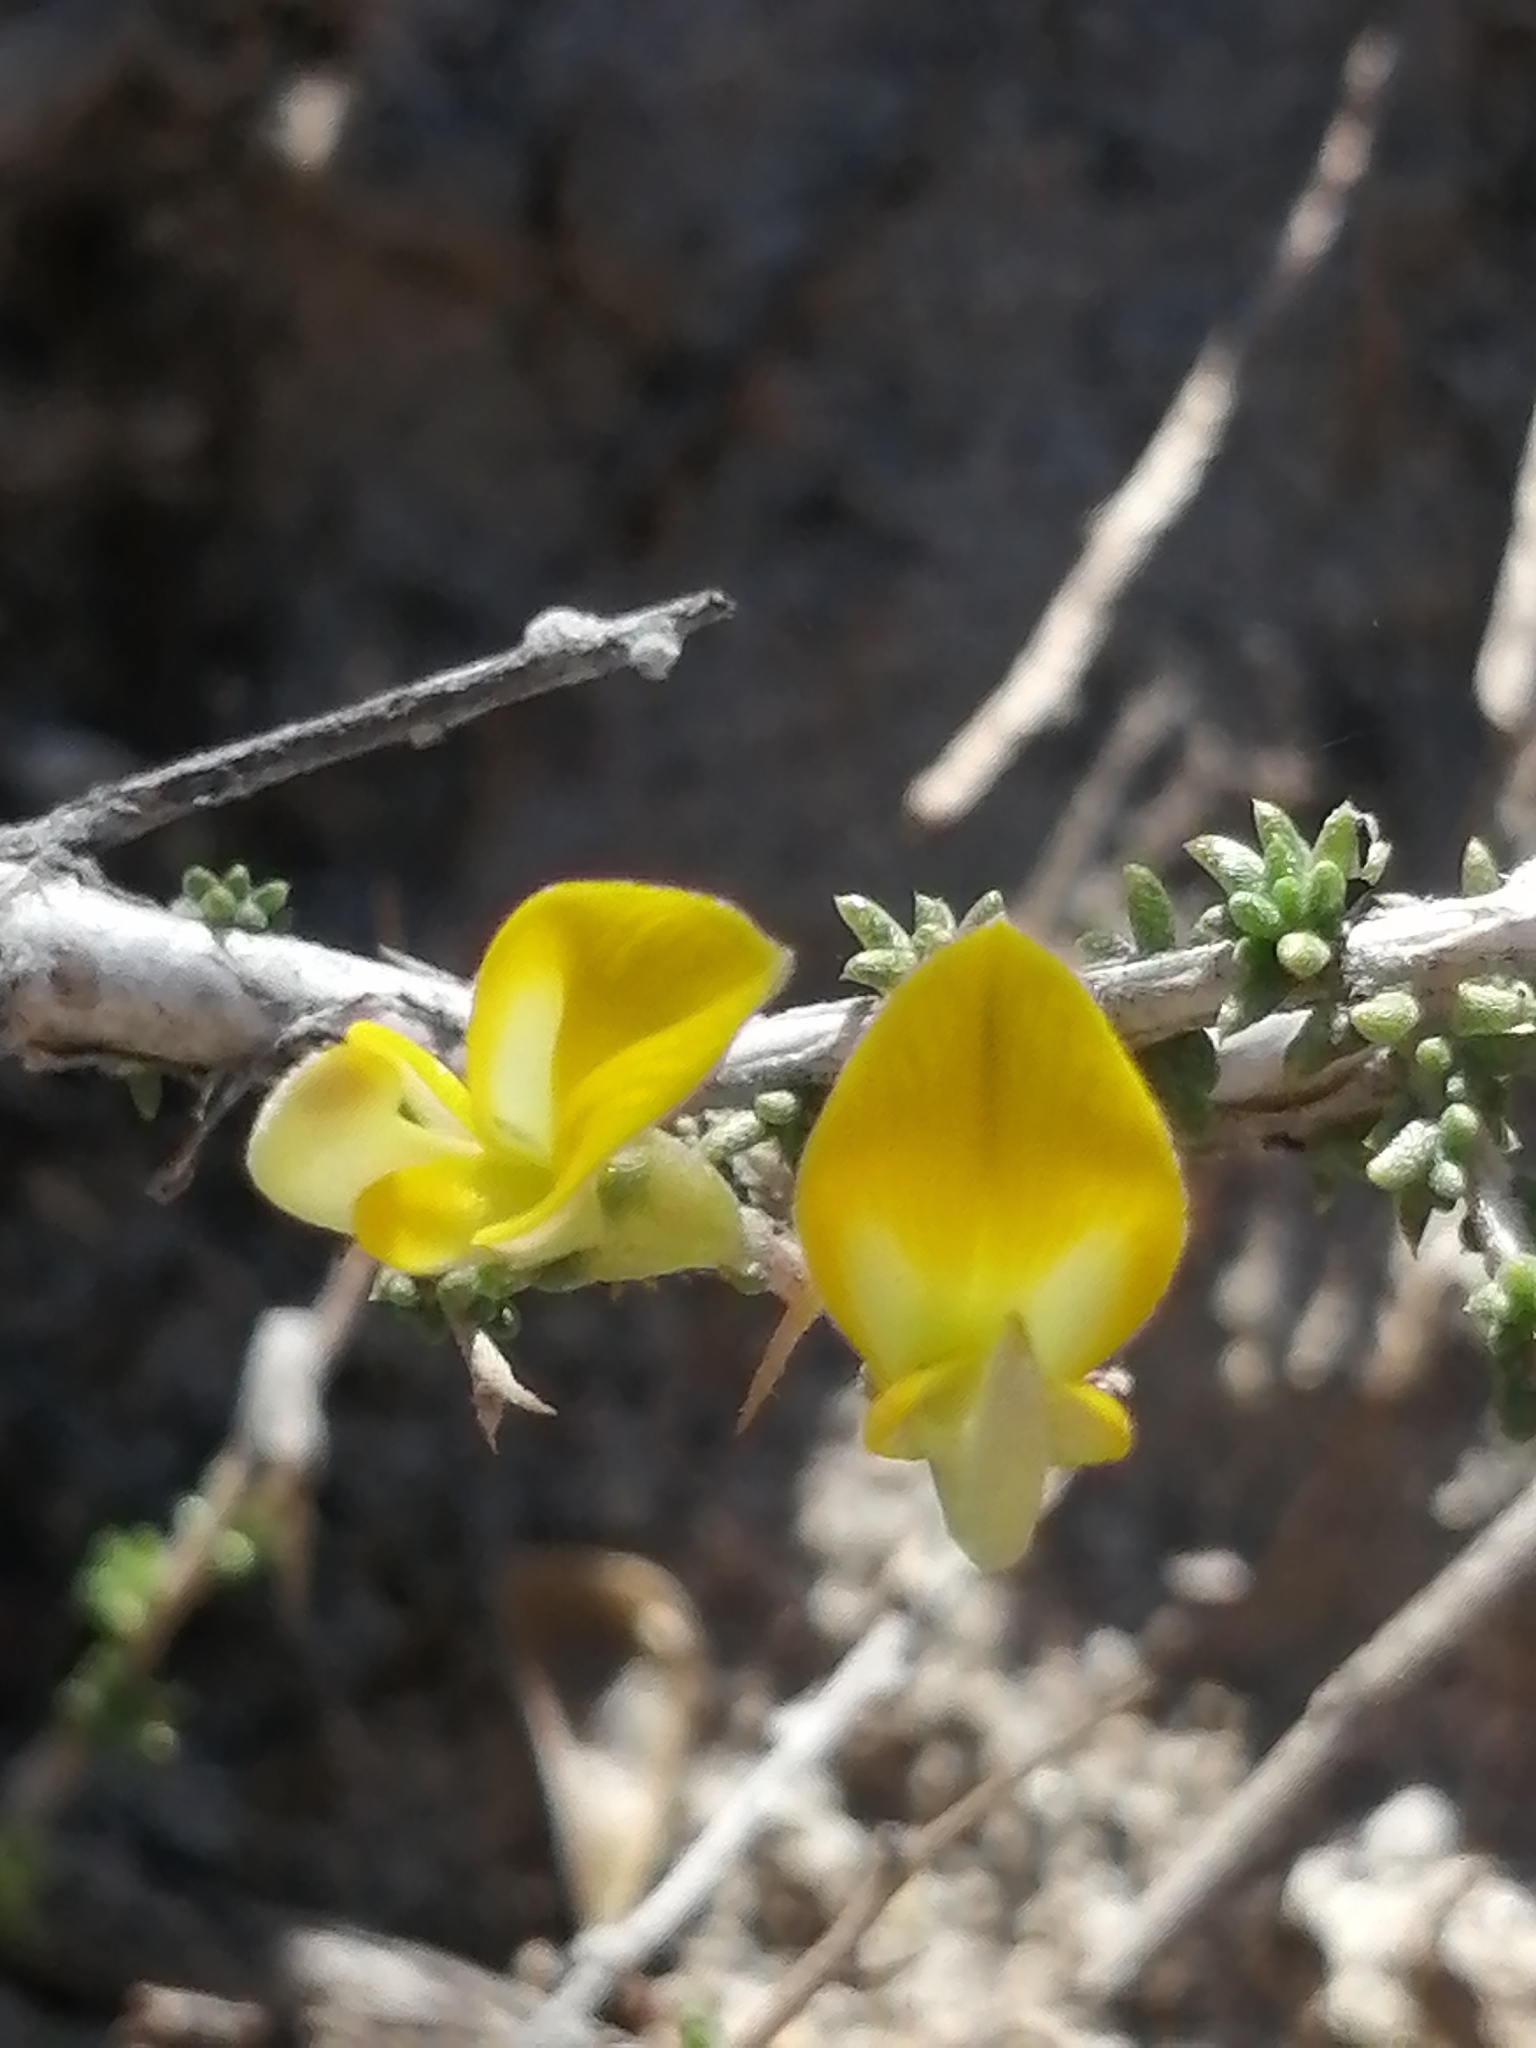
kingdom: Plantae
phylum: Tracheophyta
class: Magnoliopsida
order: Fabales
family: Fabaceae
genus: Aspalathus
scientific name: Aspalathus acuminata
